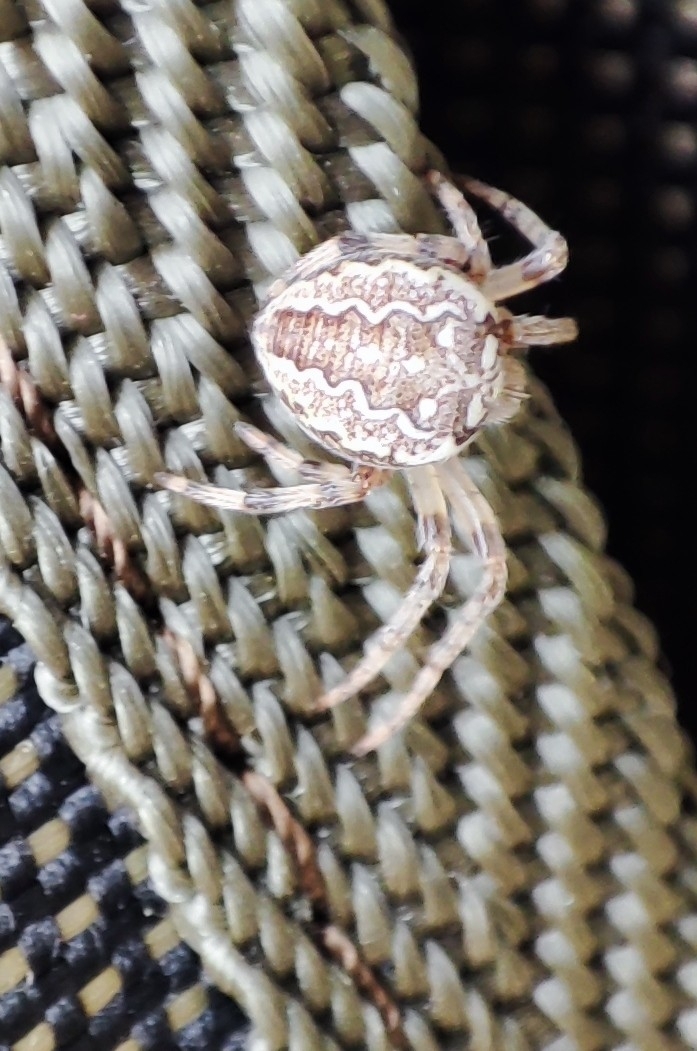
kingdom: Animalia
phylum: Arthropoda
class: Arachnida
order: Araneae
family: Araneidae
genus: Araneus
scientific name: Araneus marmoreus
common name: Marbled orbweaver
